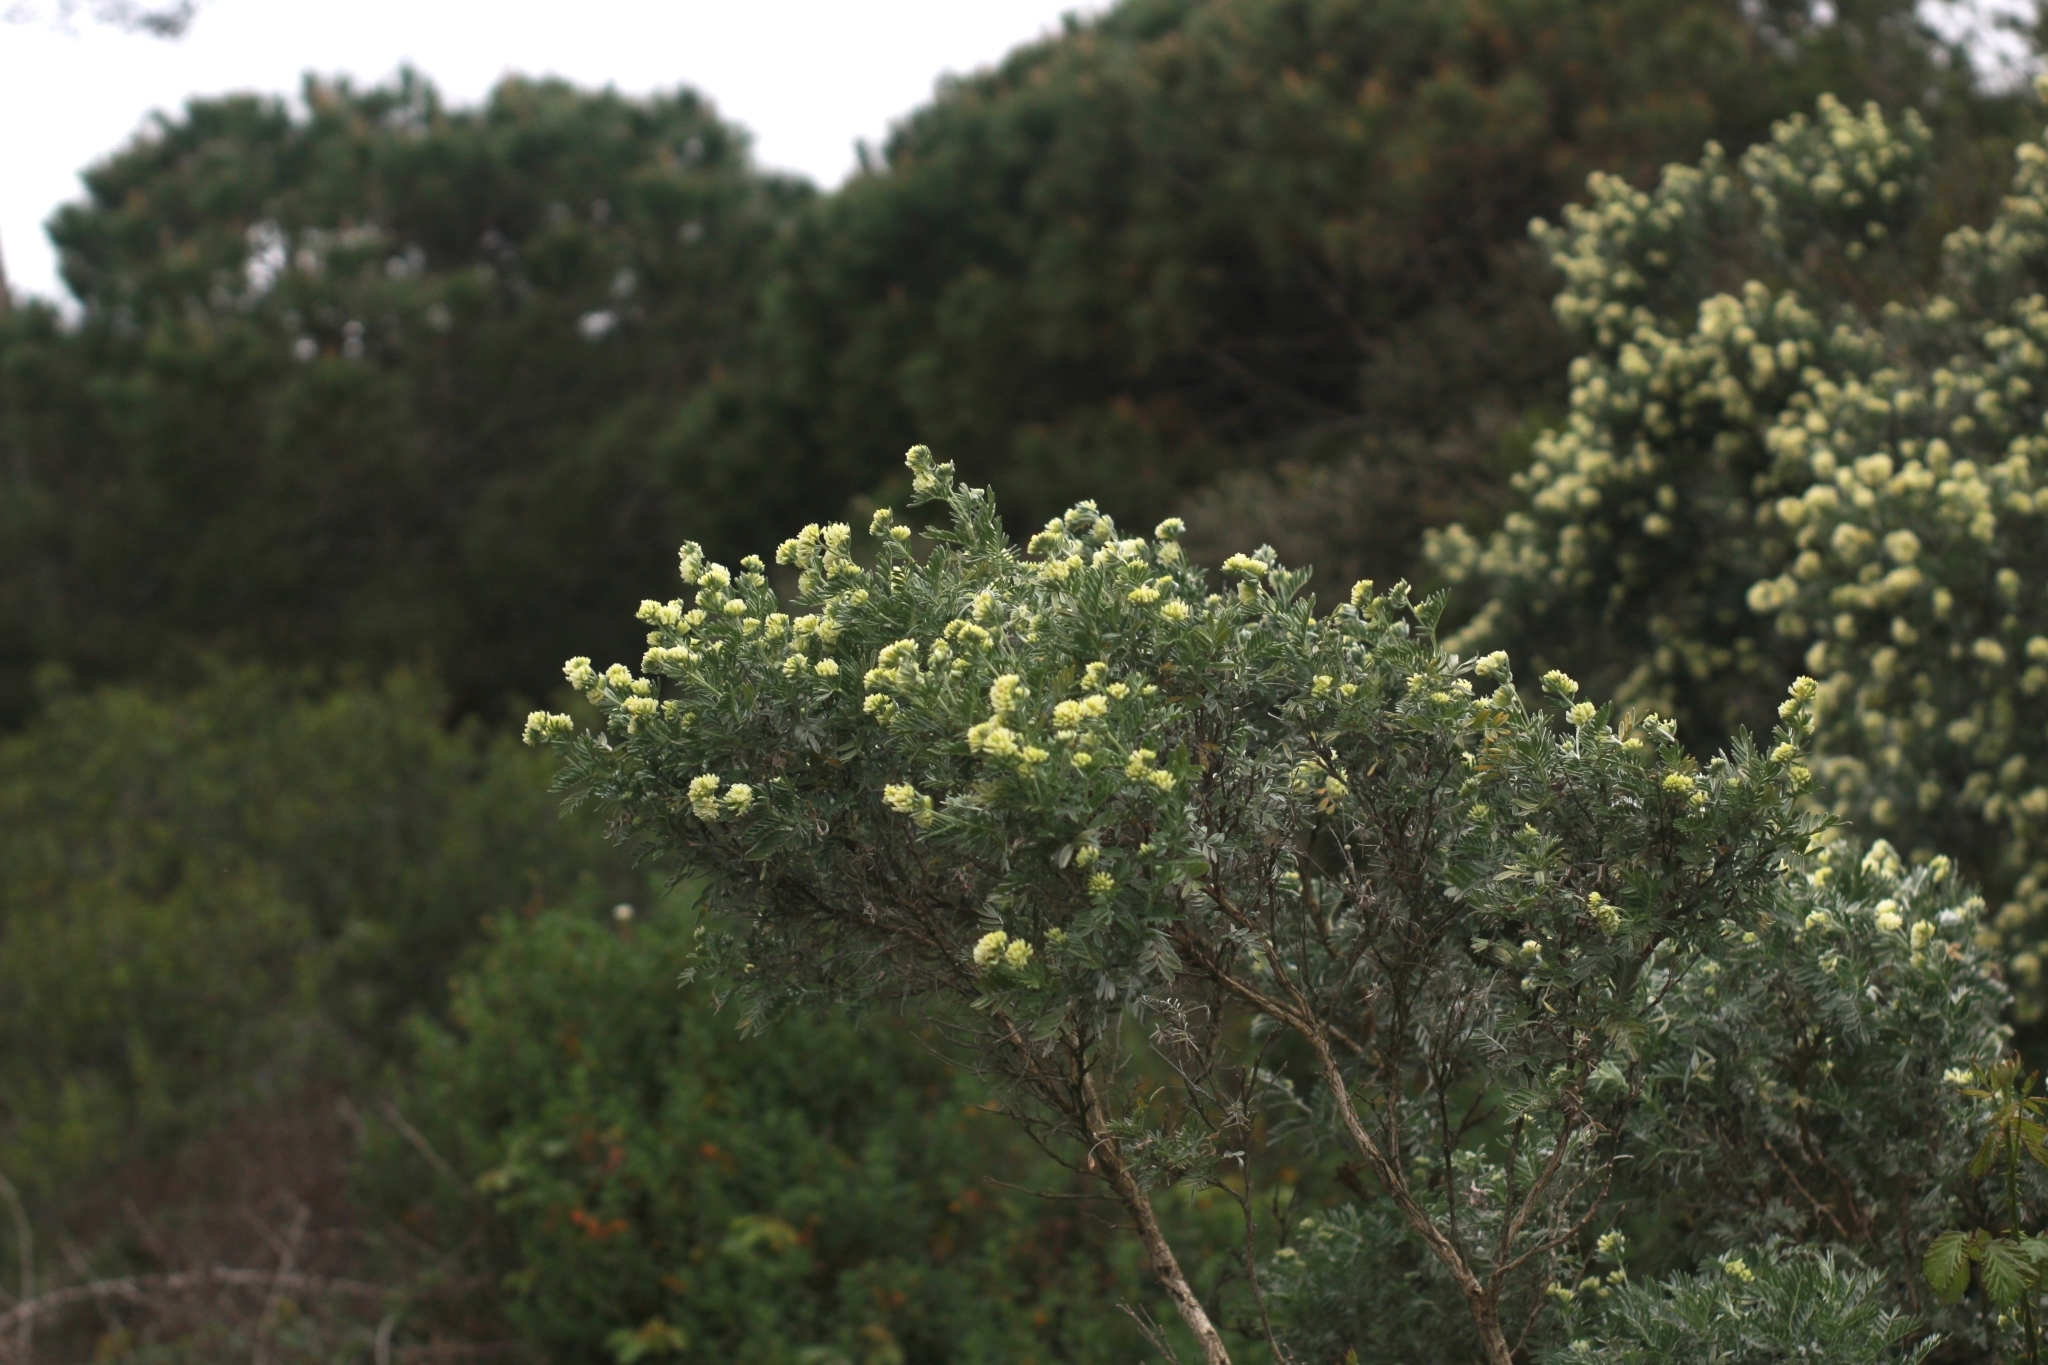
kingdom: Plantae
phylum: Tracheophyta
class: Magnoliopsida
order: Fabales
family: Fabaceae
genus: Anthyllis
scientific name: Anthyllis barba-jovis
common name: Jupiter's-beard
